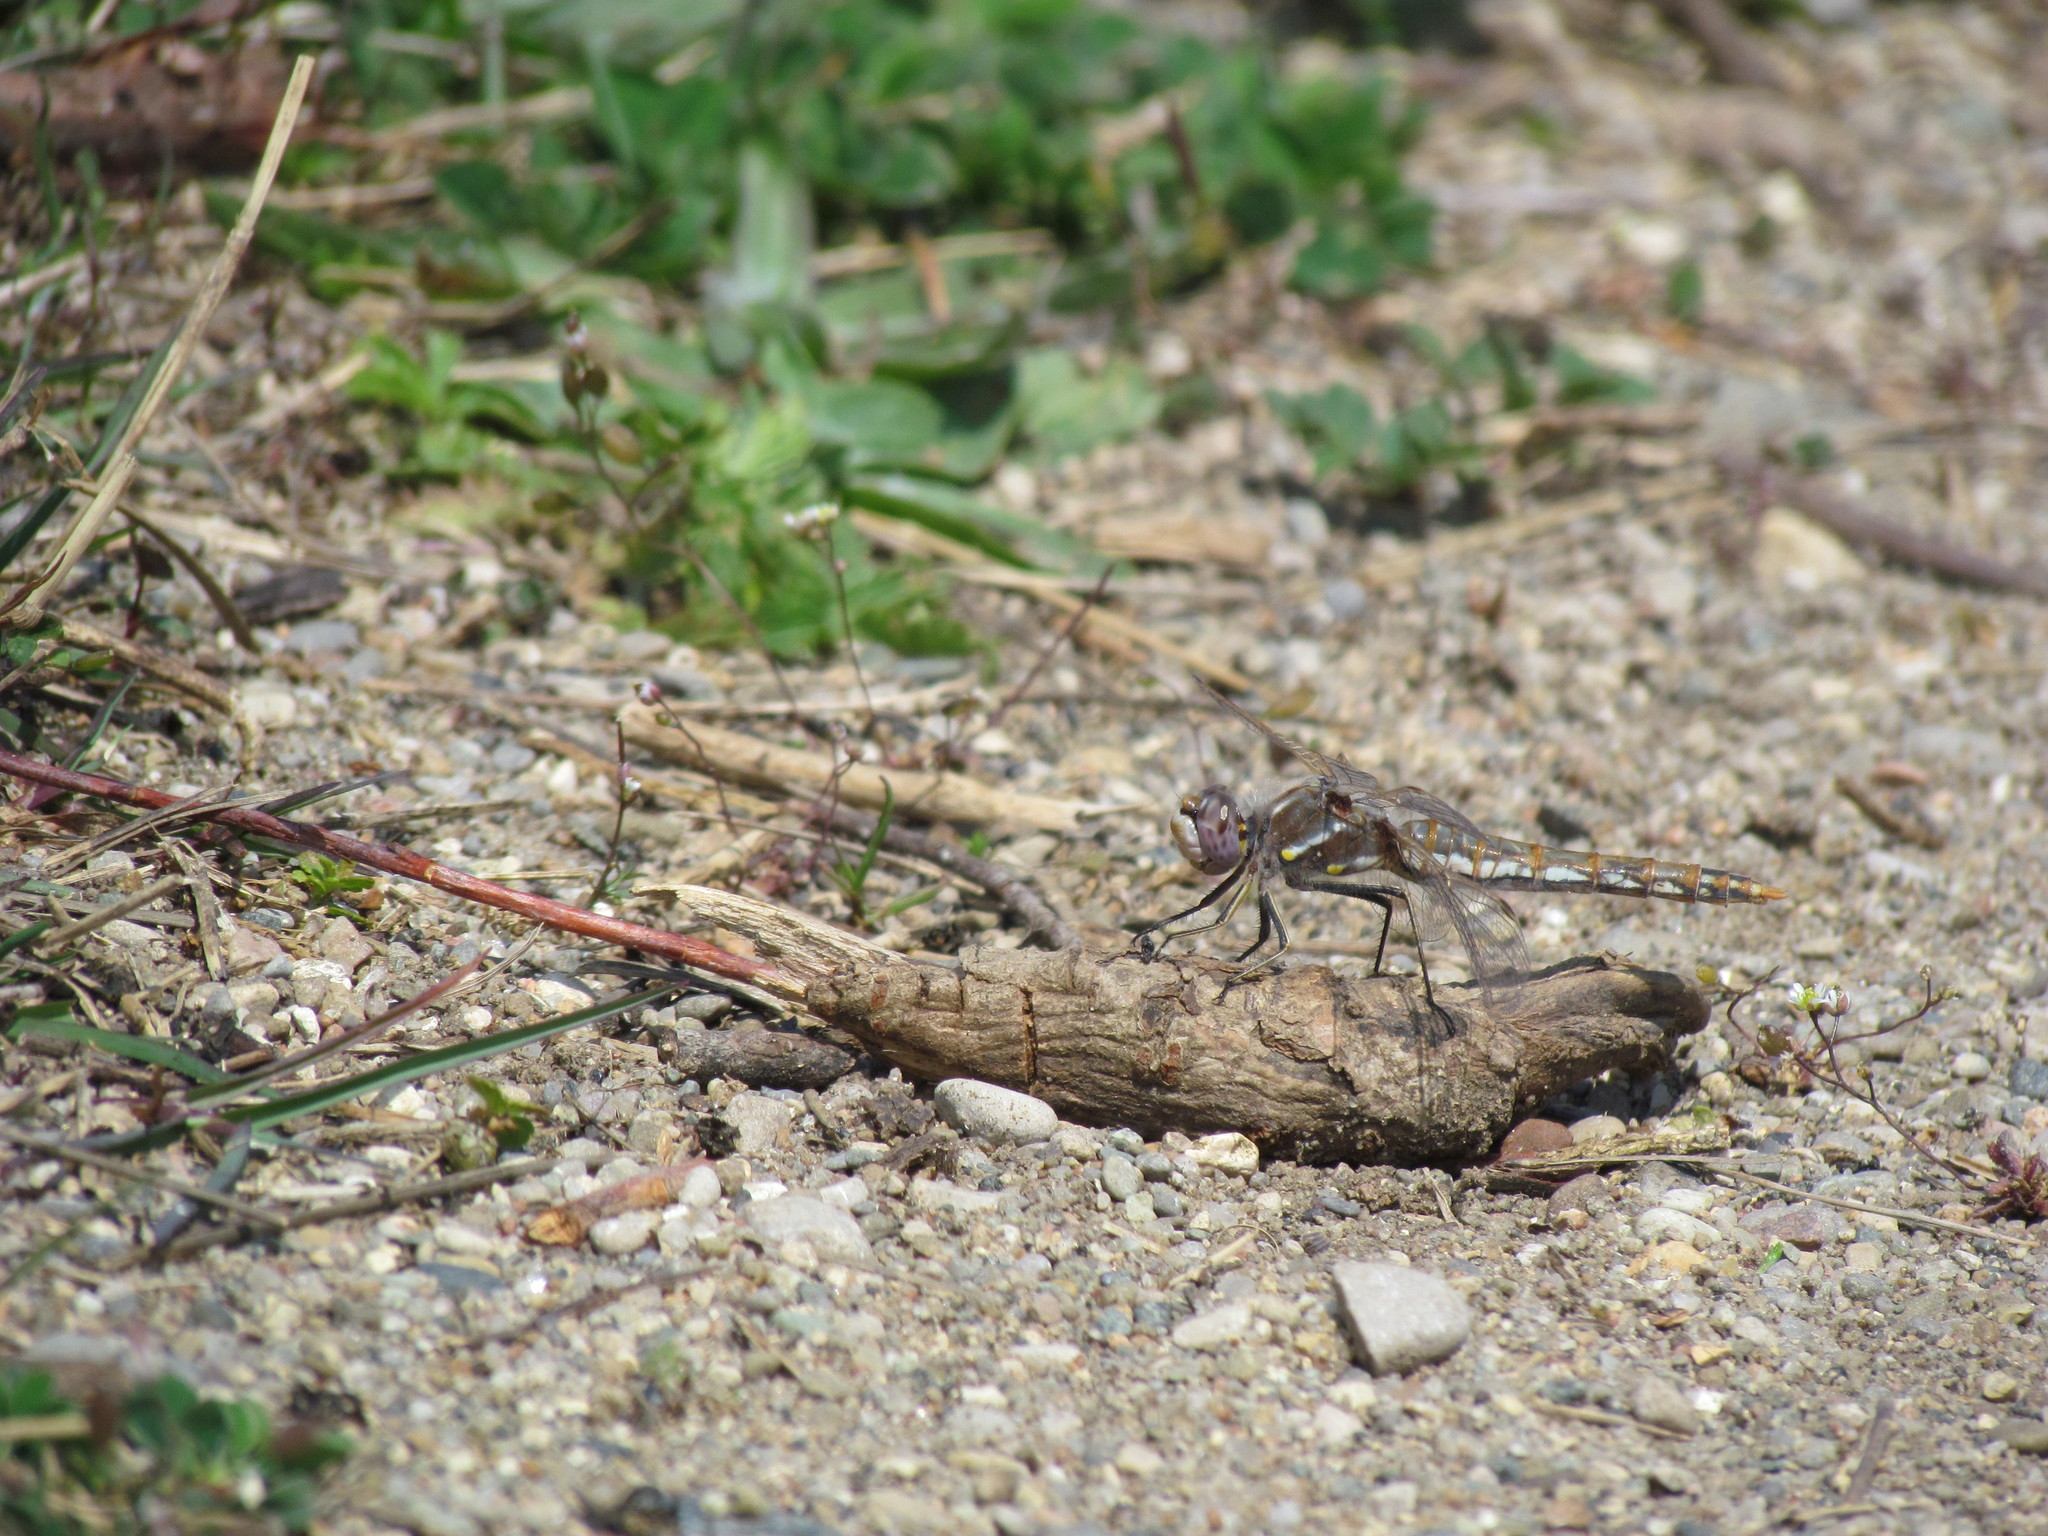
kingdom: Animalia
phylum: Arthropoda
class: Insecta
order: Odonata
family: Libellulidae
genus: Sympetrum
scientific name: Sympetrum corruptum
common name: Variegated meadowhawk
